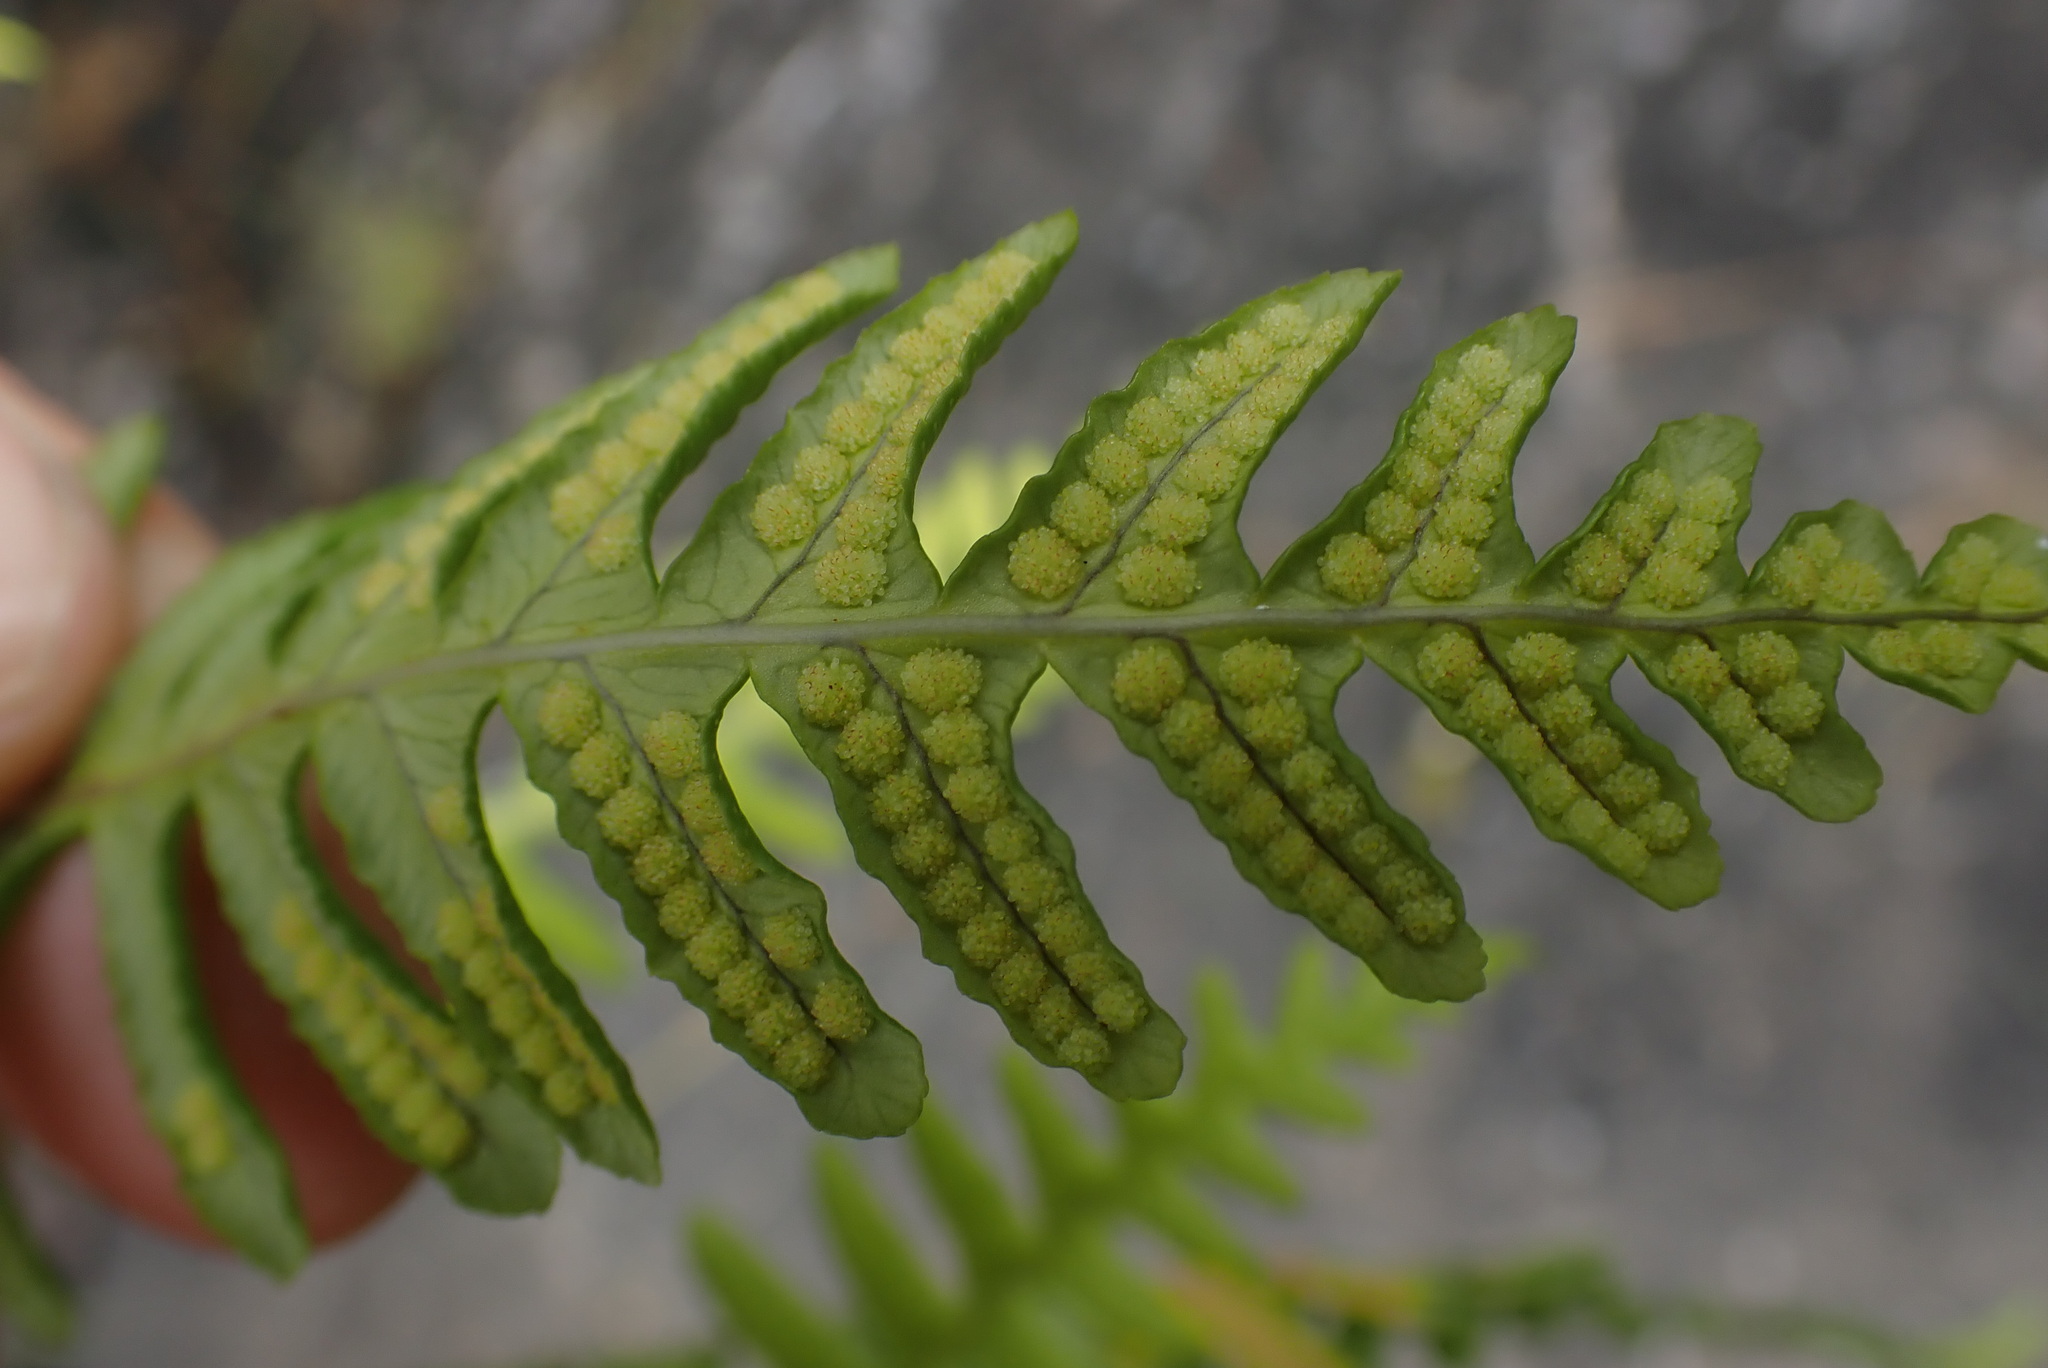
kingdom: Plantae
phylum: Tracheophyta
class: Polypodiopsida
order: Polypodiales
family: Polypodiaceae
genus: Polypodium
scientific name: Polypodium glycyrrhiza
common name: Licorice fern
